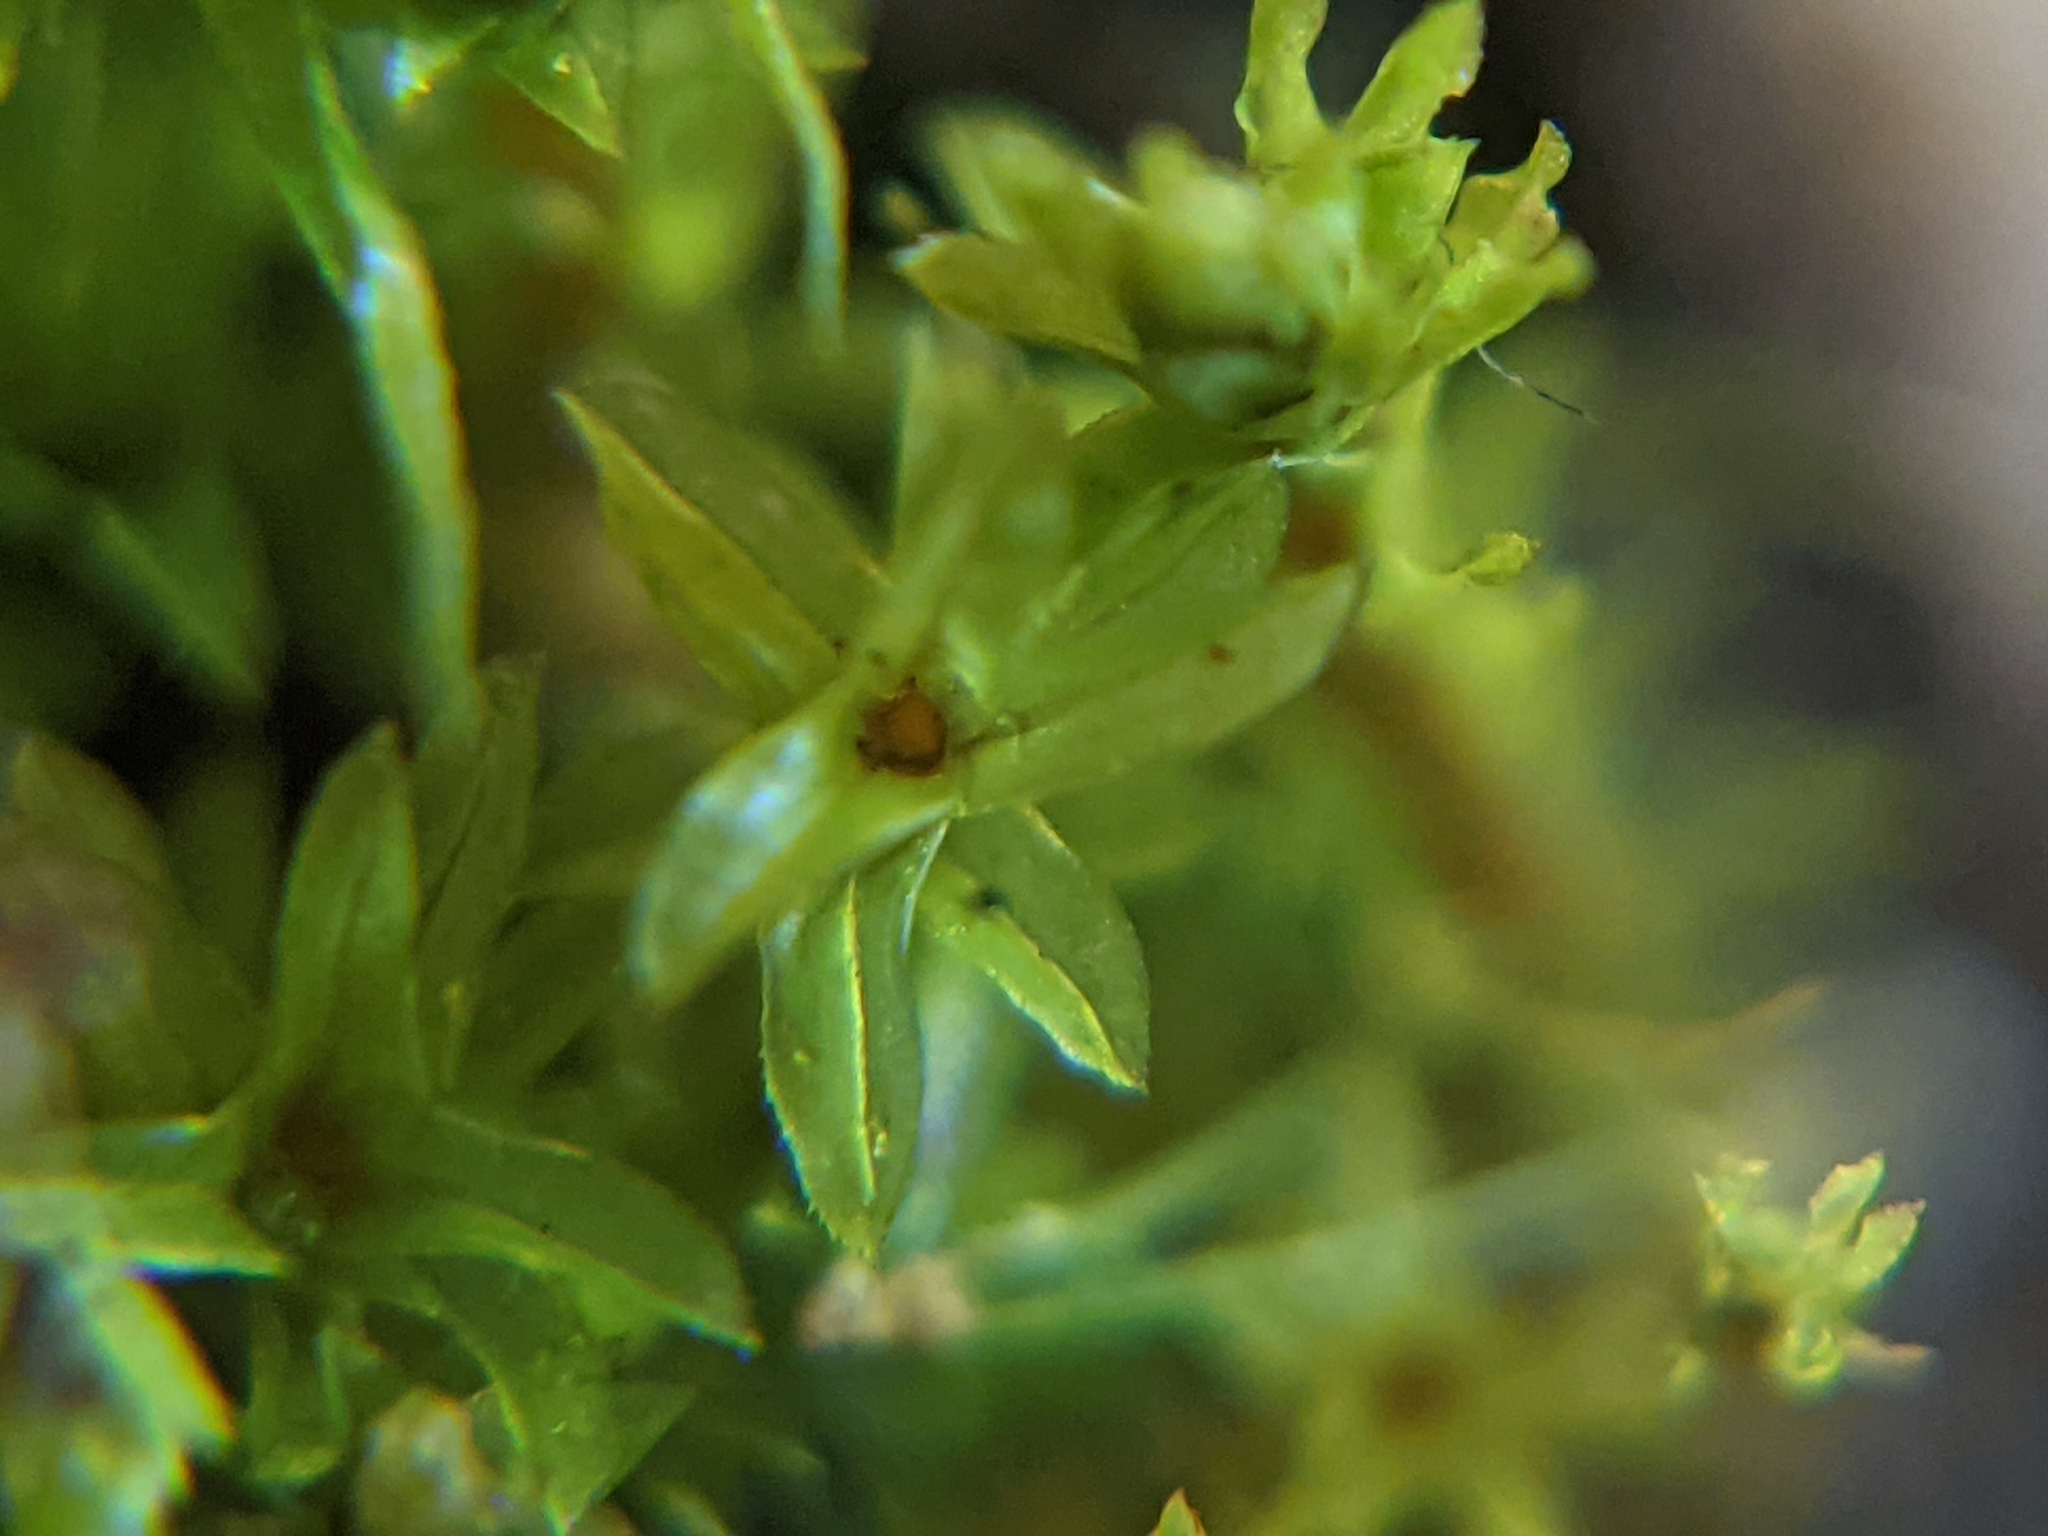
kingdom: Plantae
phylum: Bryophyta
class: Bryopsida
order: Pottiales
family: Pottiaceae
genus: Leptodontium
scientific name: Leptodontium flexifolium
